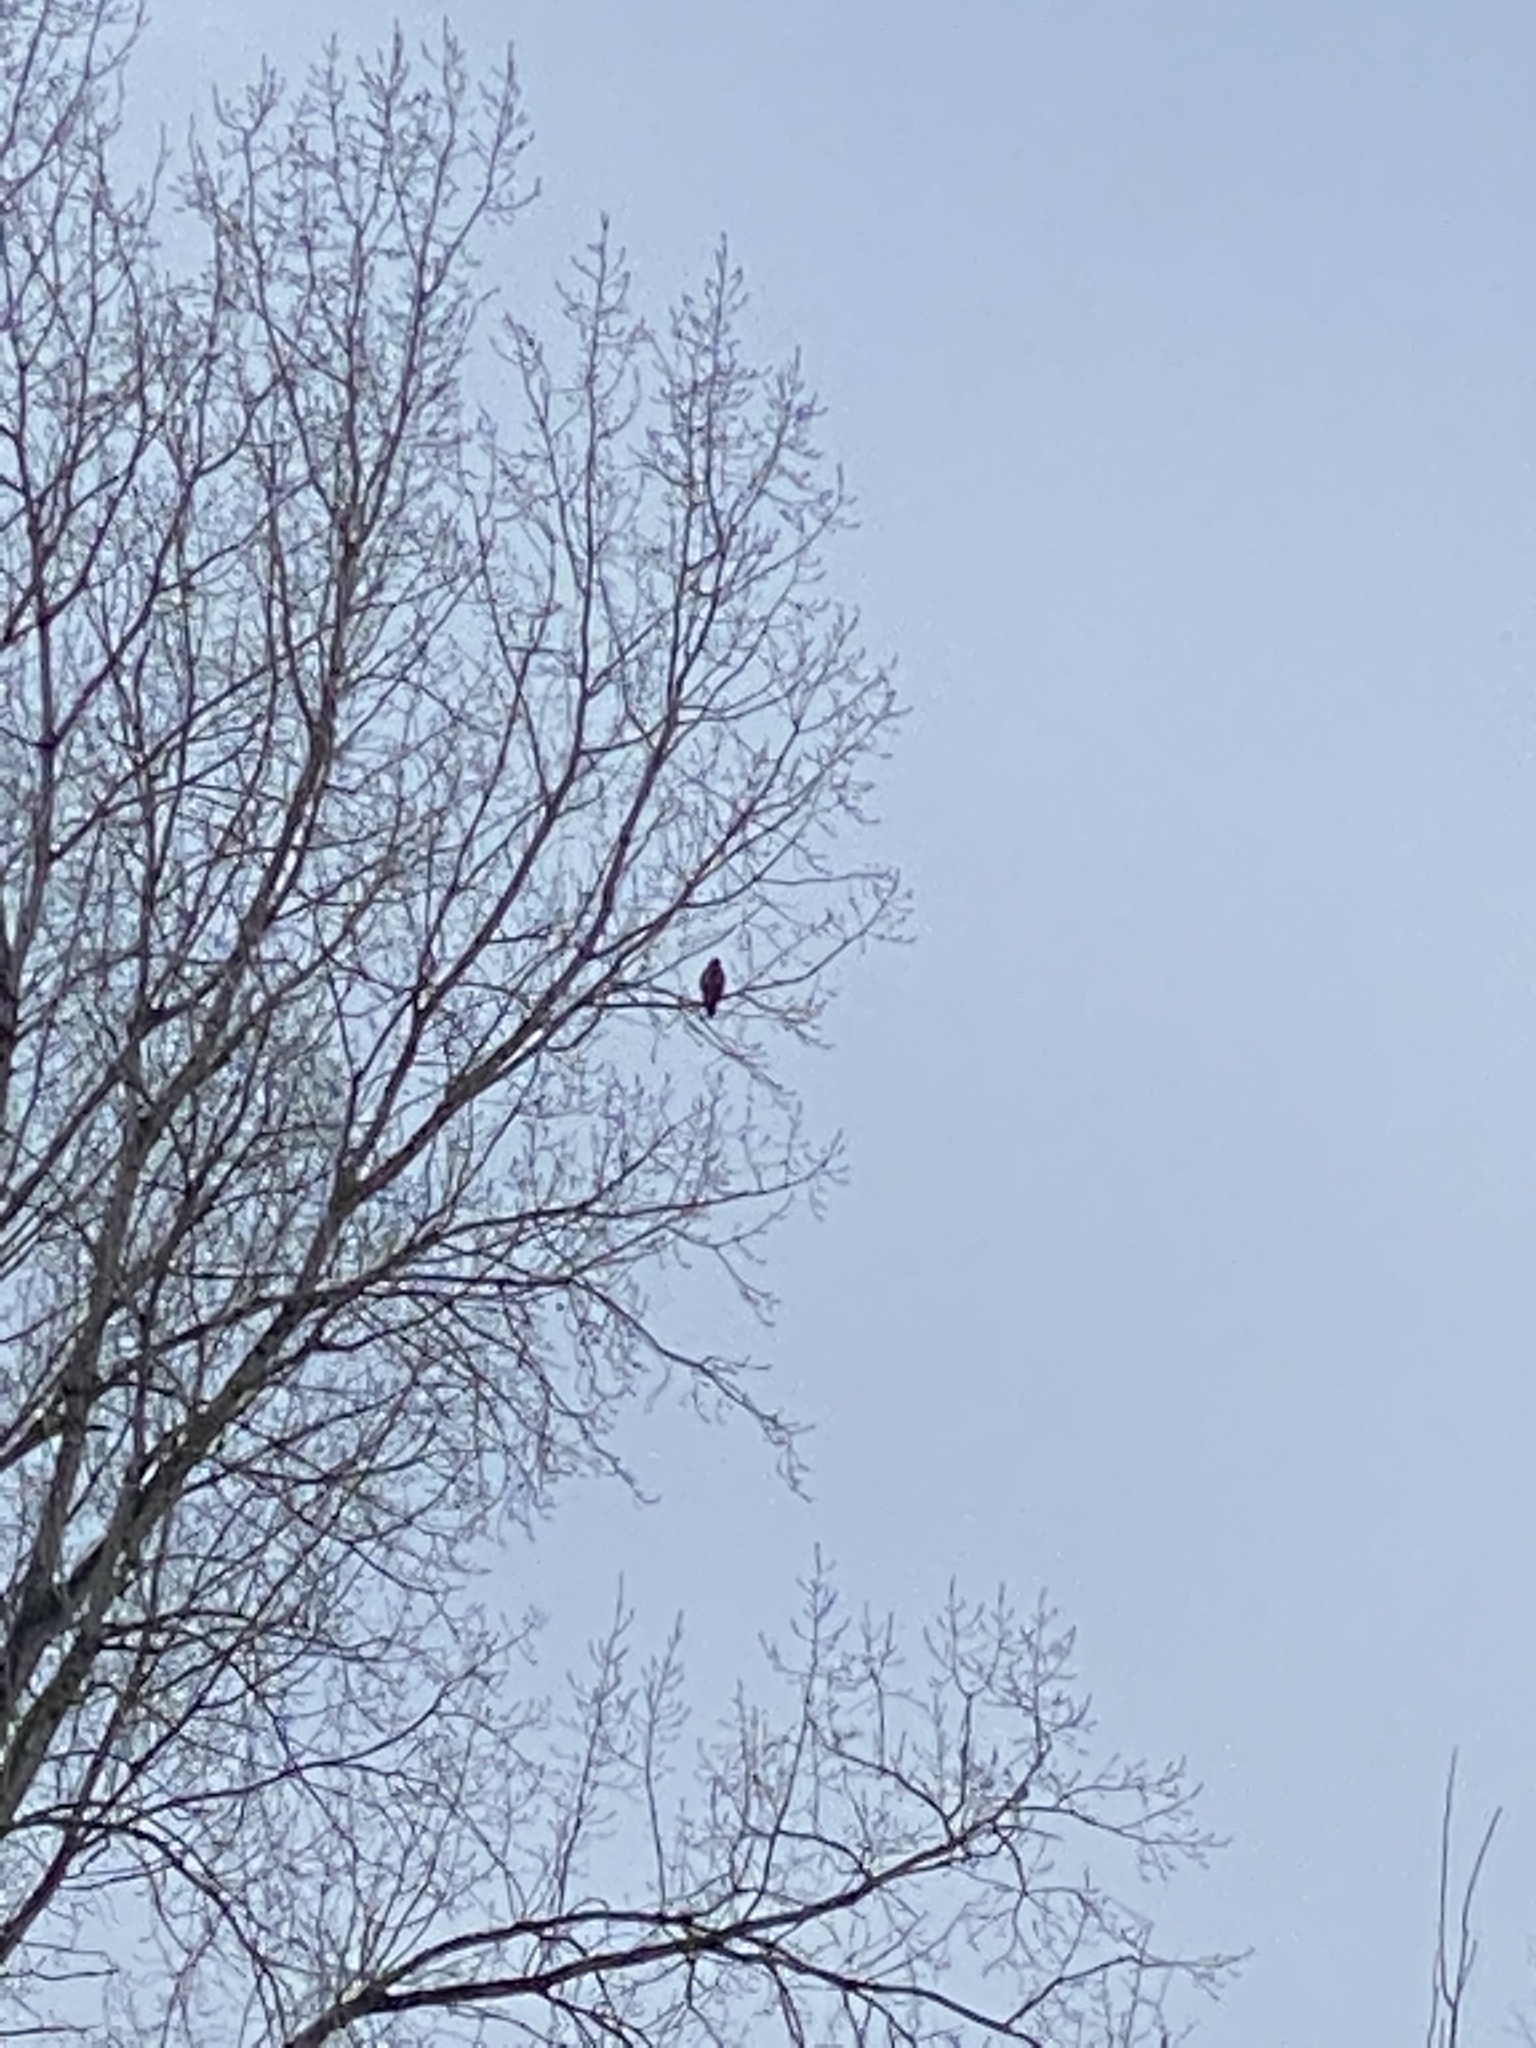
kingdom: Animalia
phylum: Chordata
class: Aves
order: Accipitriformes
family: Accipitridae
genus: Buteo
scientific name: Buteo jamaicensis
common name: Red-tailed hawk
